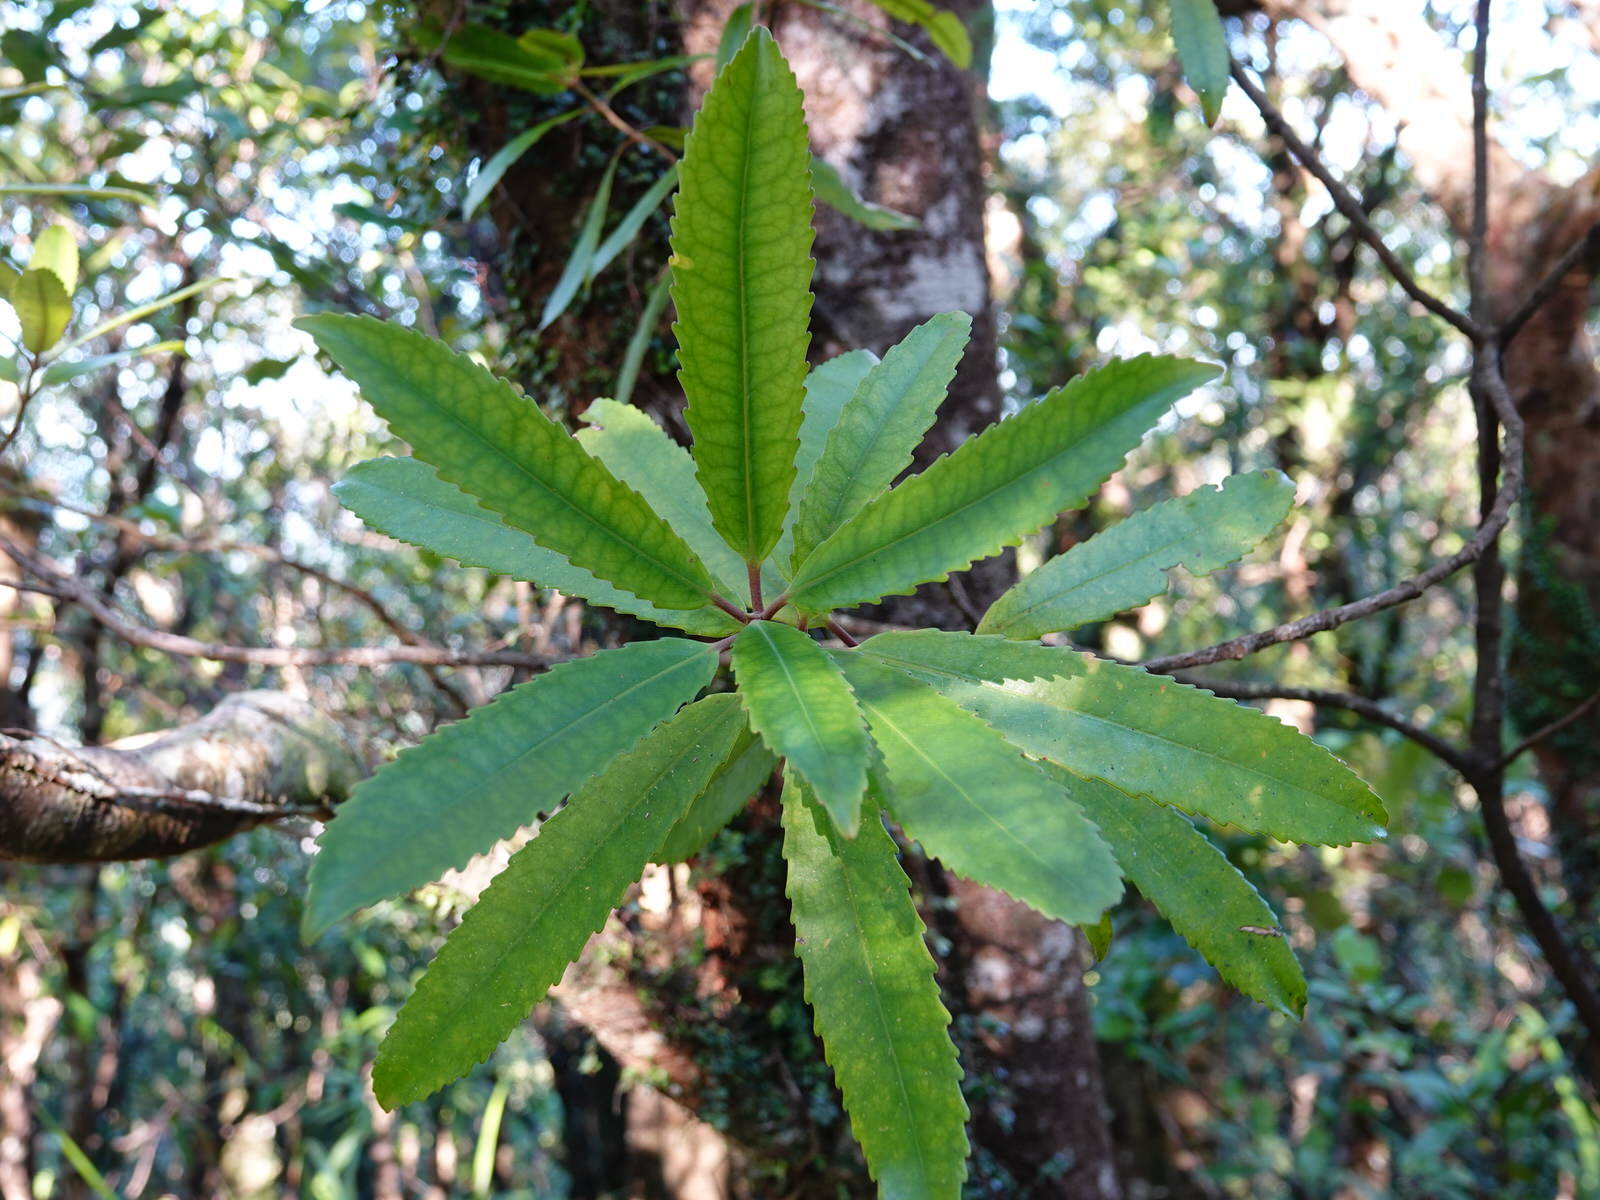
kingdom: Plantae
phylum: Tracheophyta
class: Magnoliopsida
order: Crossosomatales
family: Ixerbaceae
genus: Ixerba
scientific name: Ixerba brexioides
